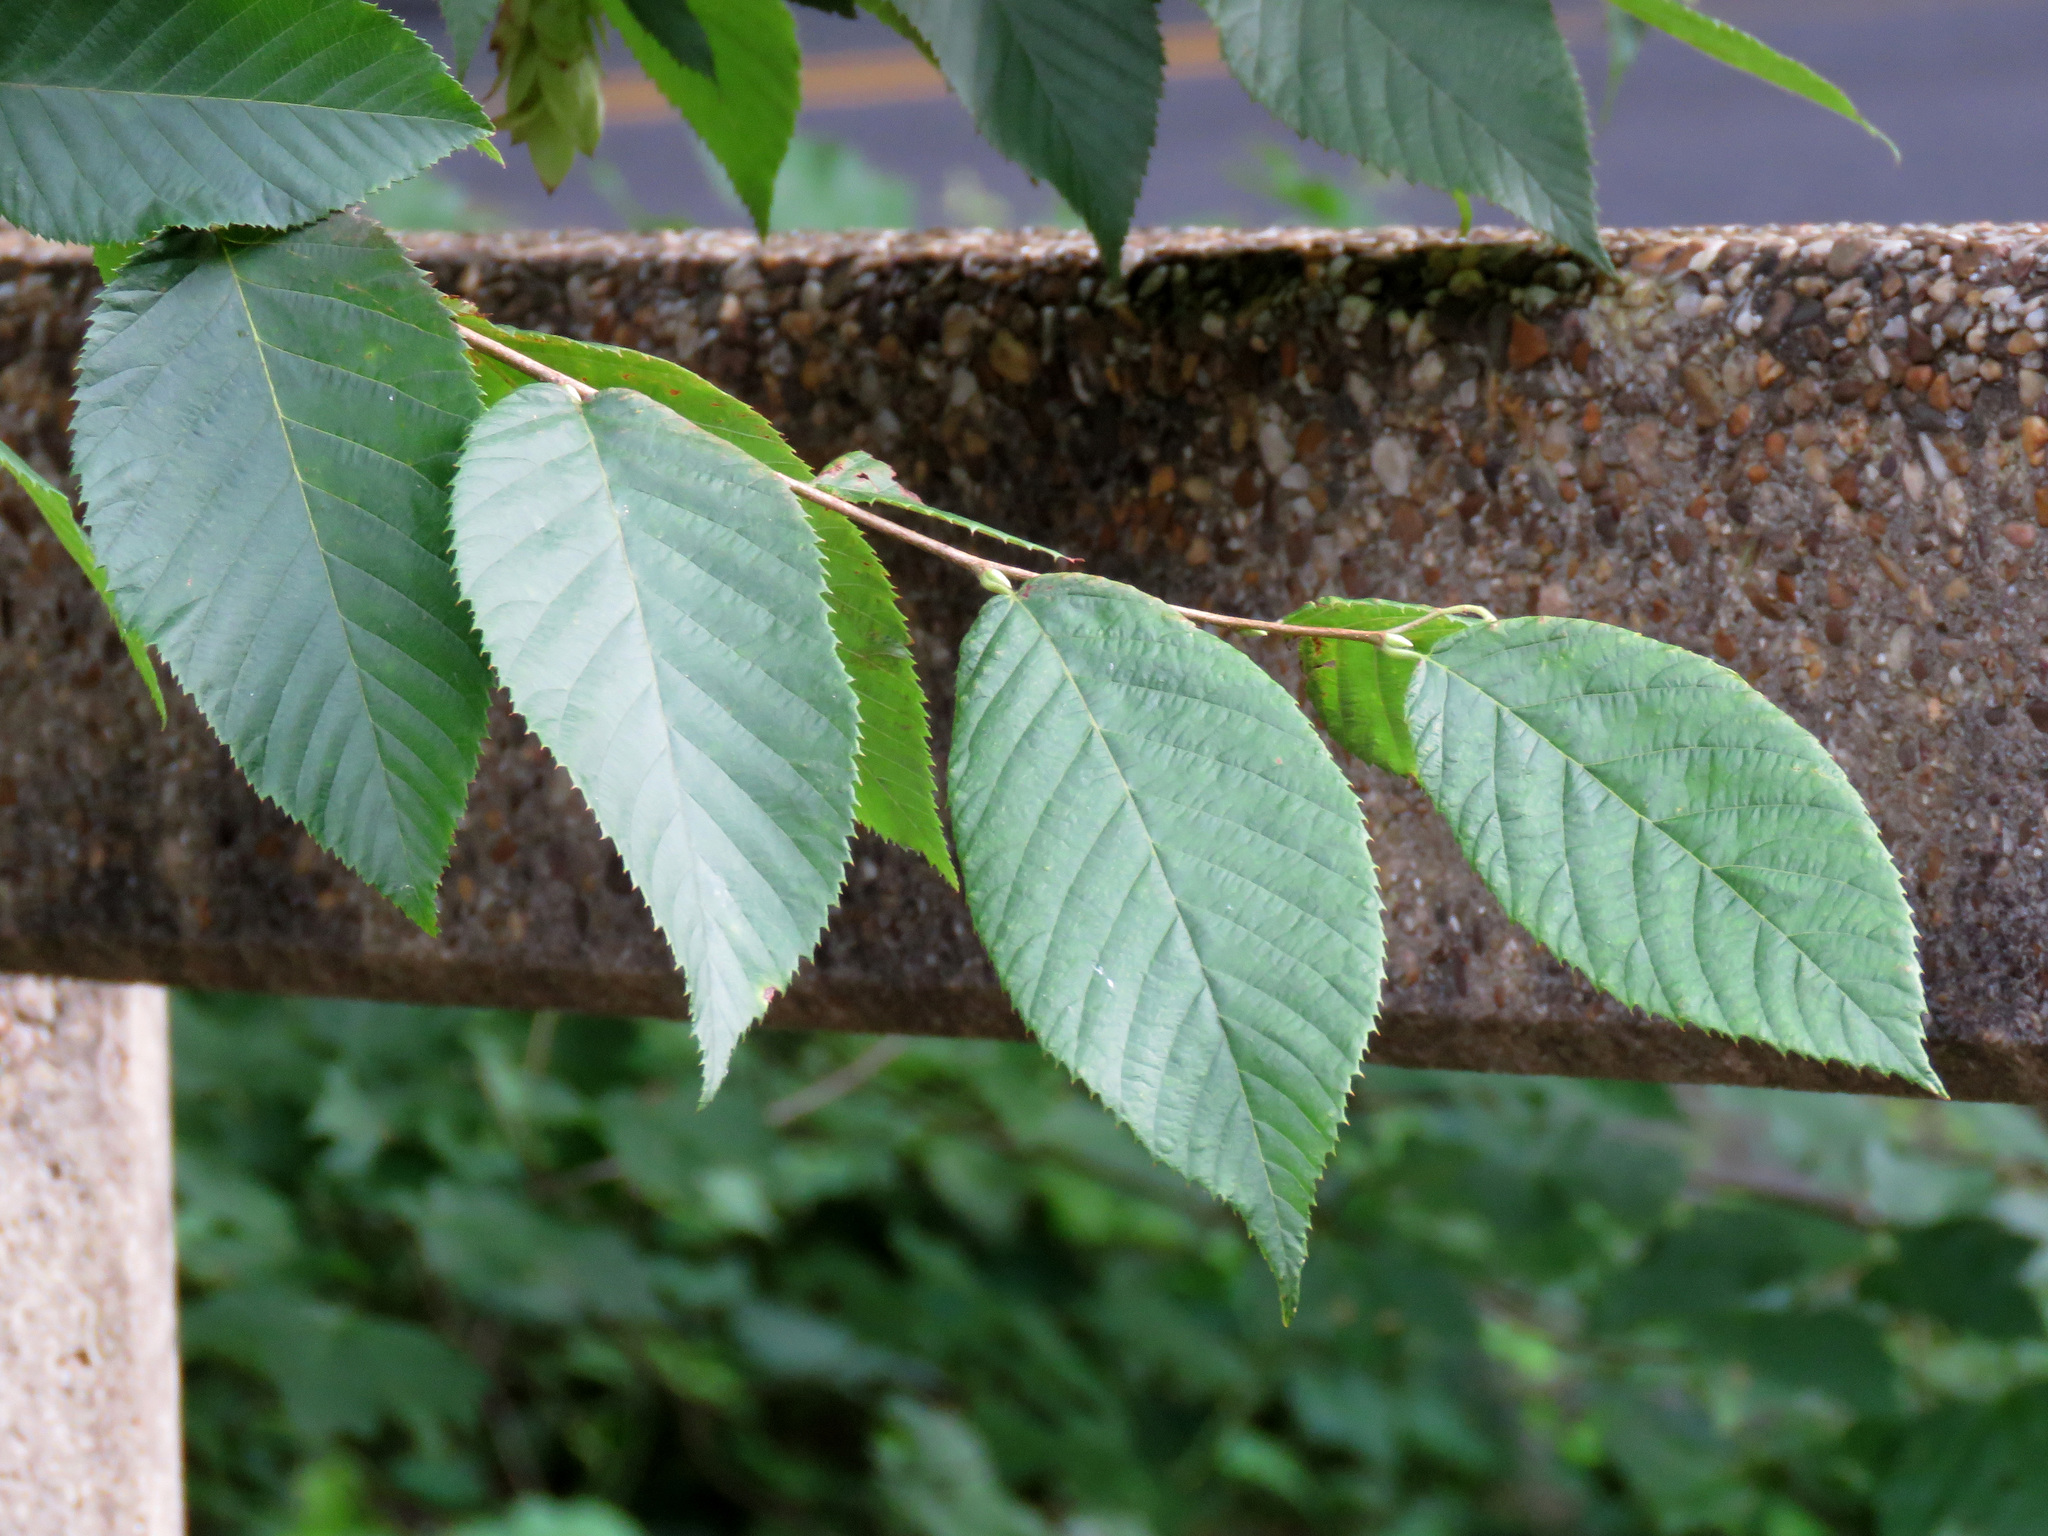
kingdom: Plantae
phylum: Tracheophyta
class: Magnoliopsida
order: Fagales
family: Betulaceae
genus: Ostrya
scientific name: Ostrya virginiana
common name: Ironwood
